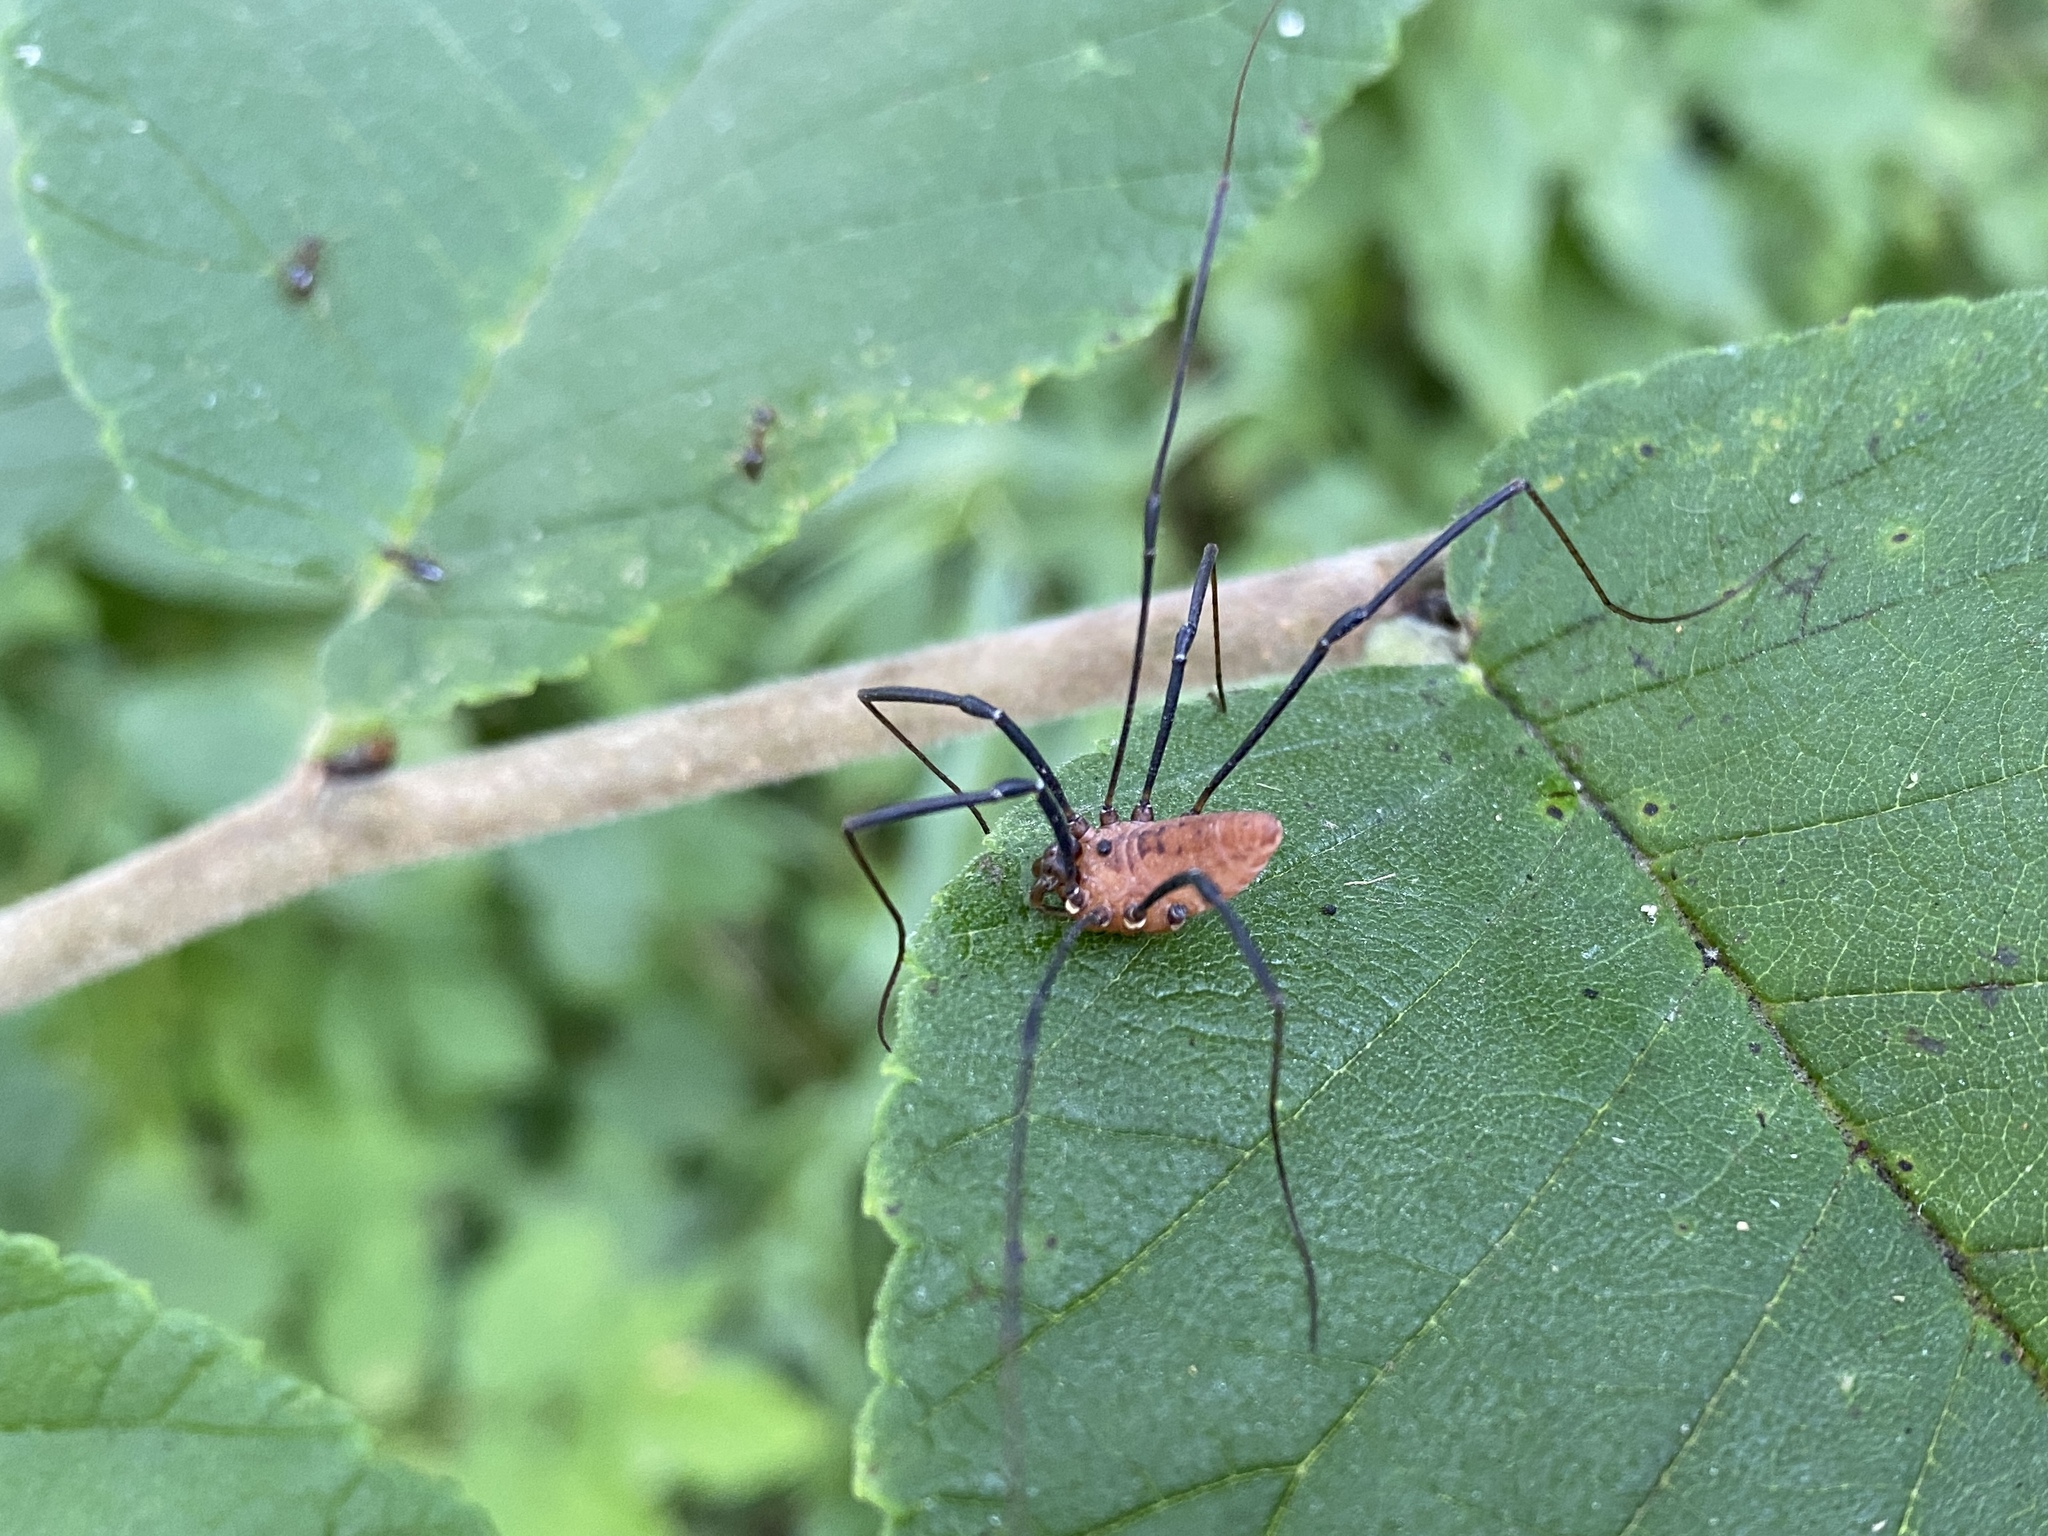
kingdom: Animalia
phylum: Arthropoda
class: Arachnida
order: Opiliones
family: Sclerosomatidae
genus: Leiobunum
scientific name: Leiobunum calcar
